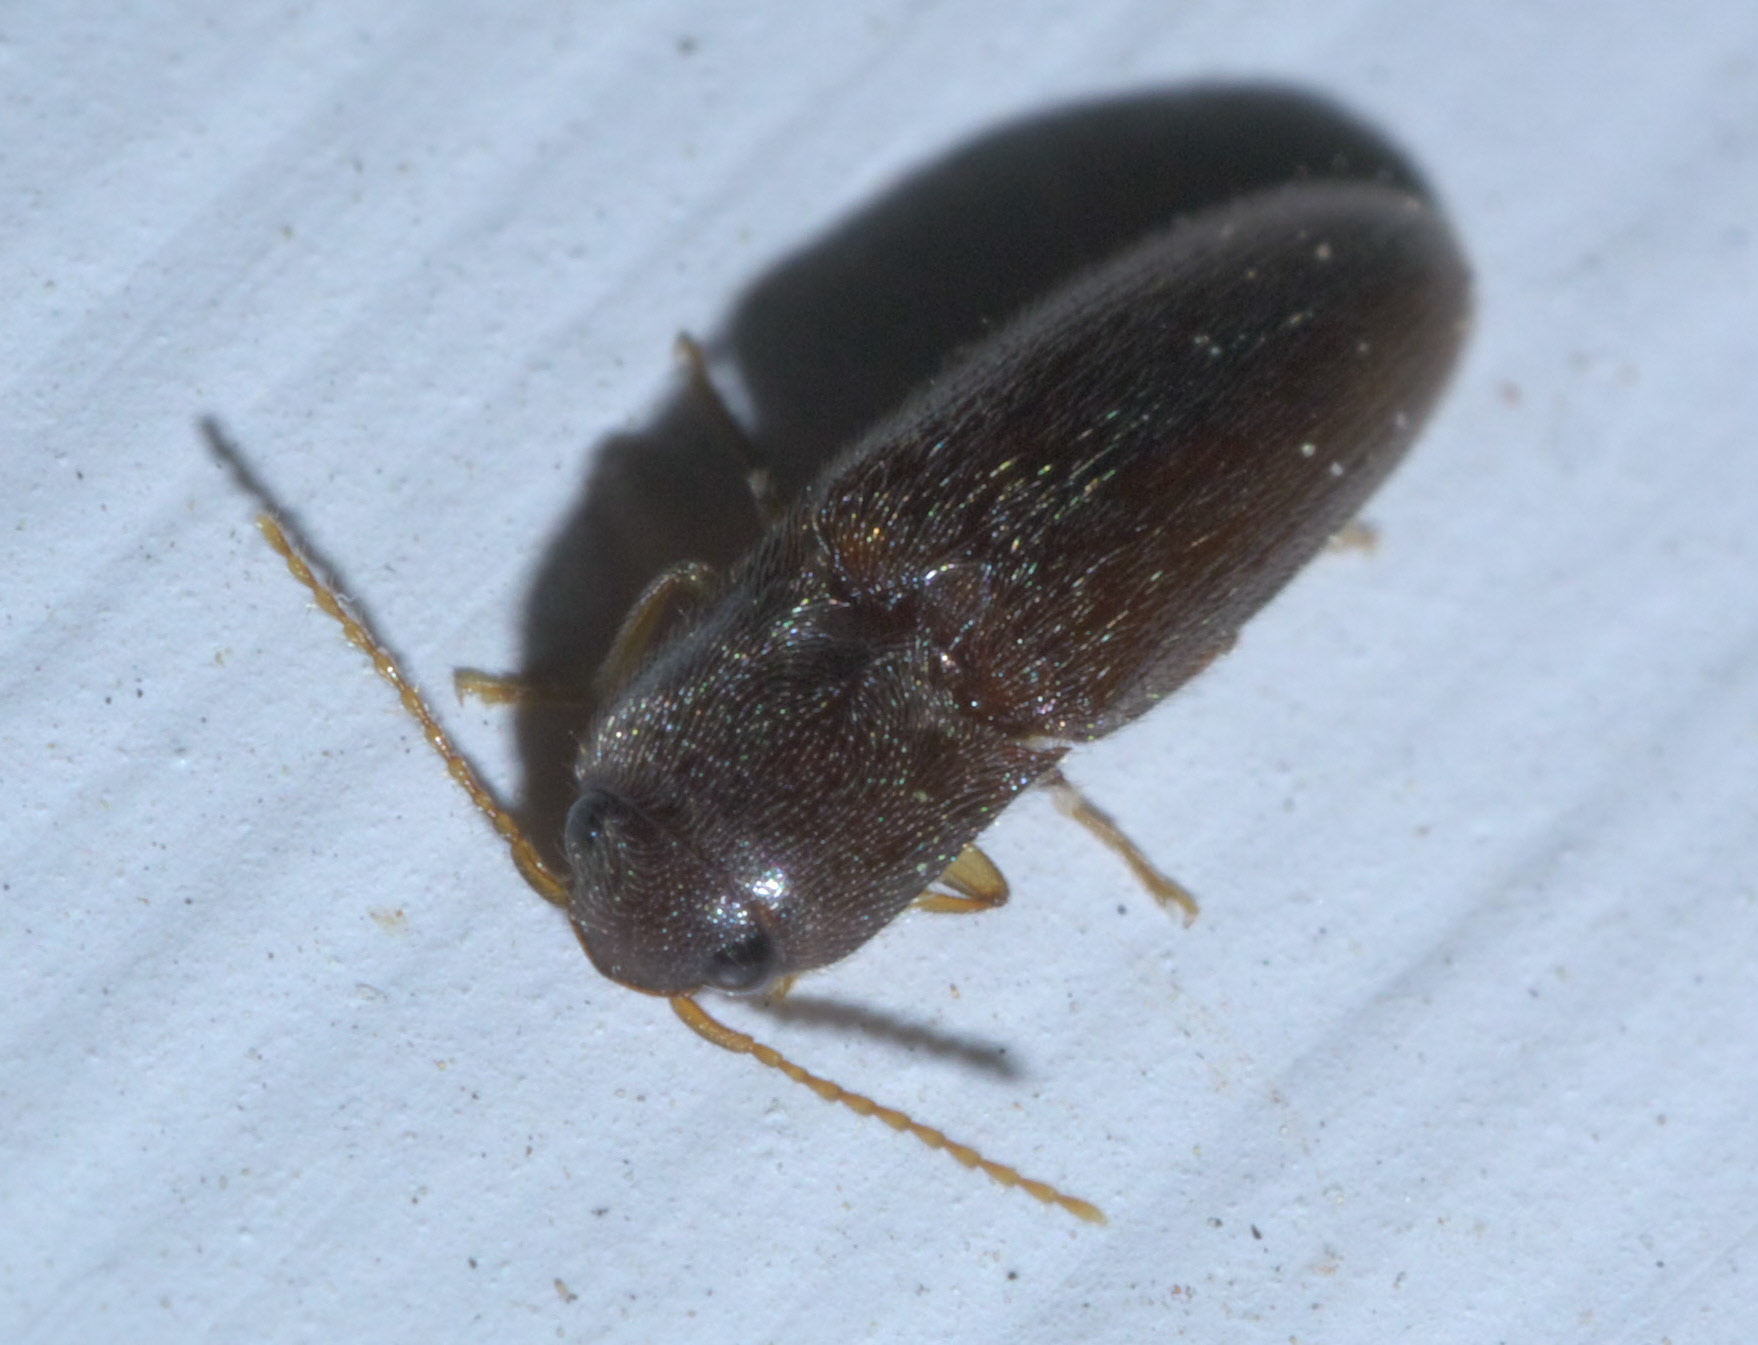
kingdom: Animalia
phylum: Arthropoda
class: Insecta
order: Coleoptera
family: Elateridae
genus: Glyphonyx
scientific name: Glyphonyx
